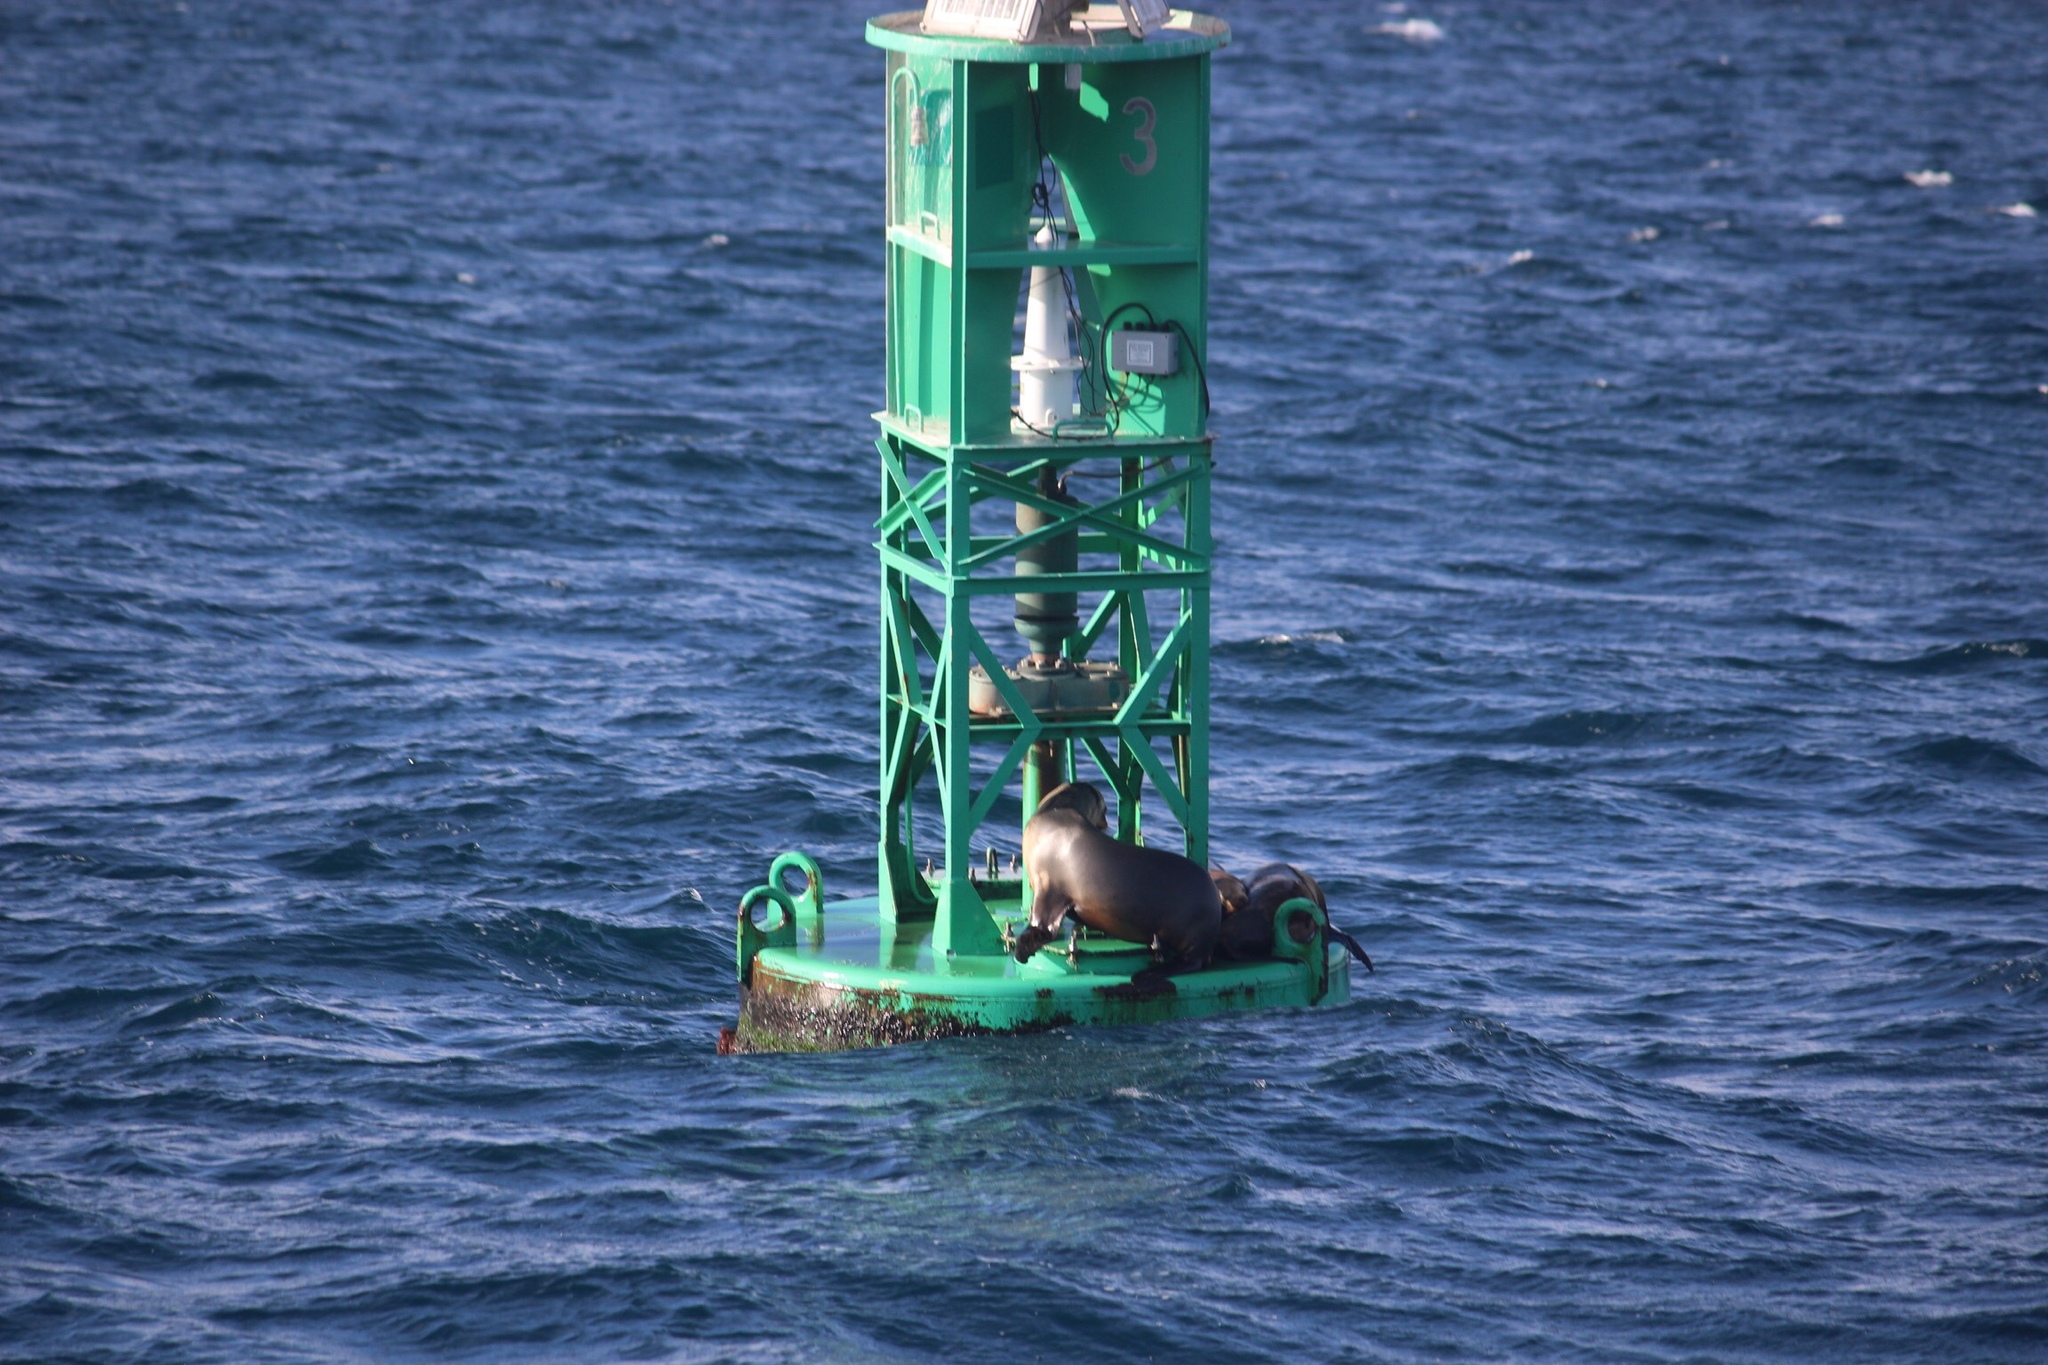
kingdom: Animalia
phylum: Chordata
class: Mammalia
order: Carnivora
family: Otariidae
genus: Zalophus
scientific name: Zalophus californianus
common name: California sea lion
